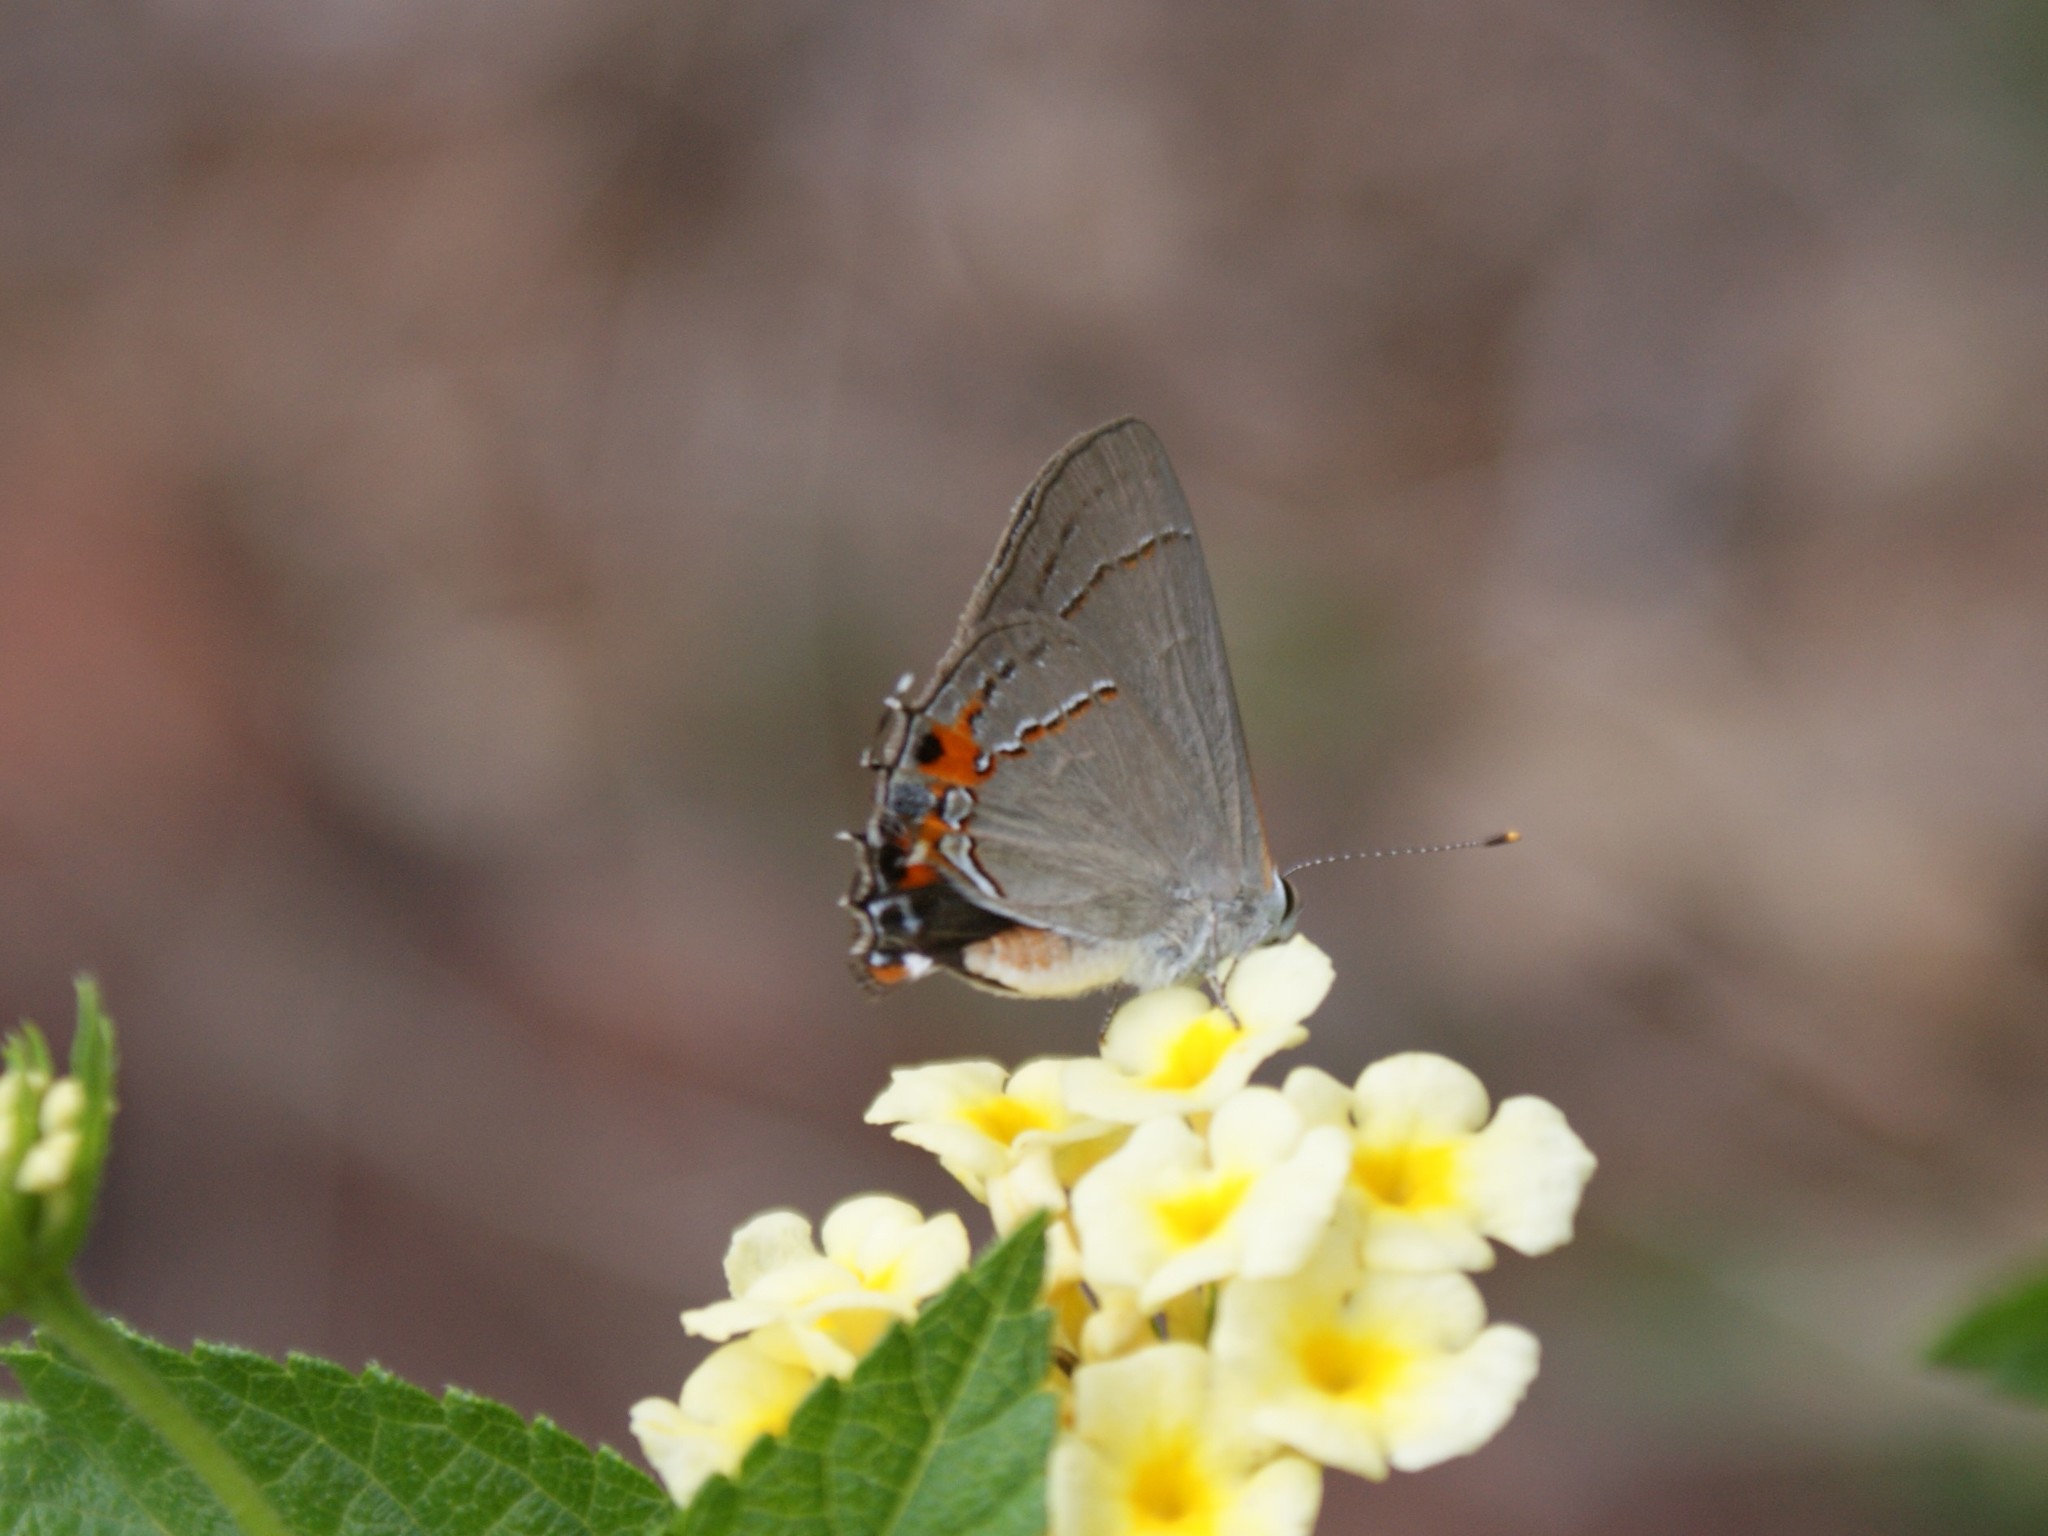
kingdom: Animalia
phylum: Arthropoda
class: Insecta
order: Lepidoptera
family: Lycaenidae
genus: Strymon
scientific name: Strymon melinus
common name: Gray hairstreak
